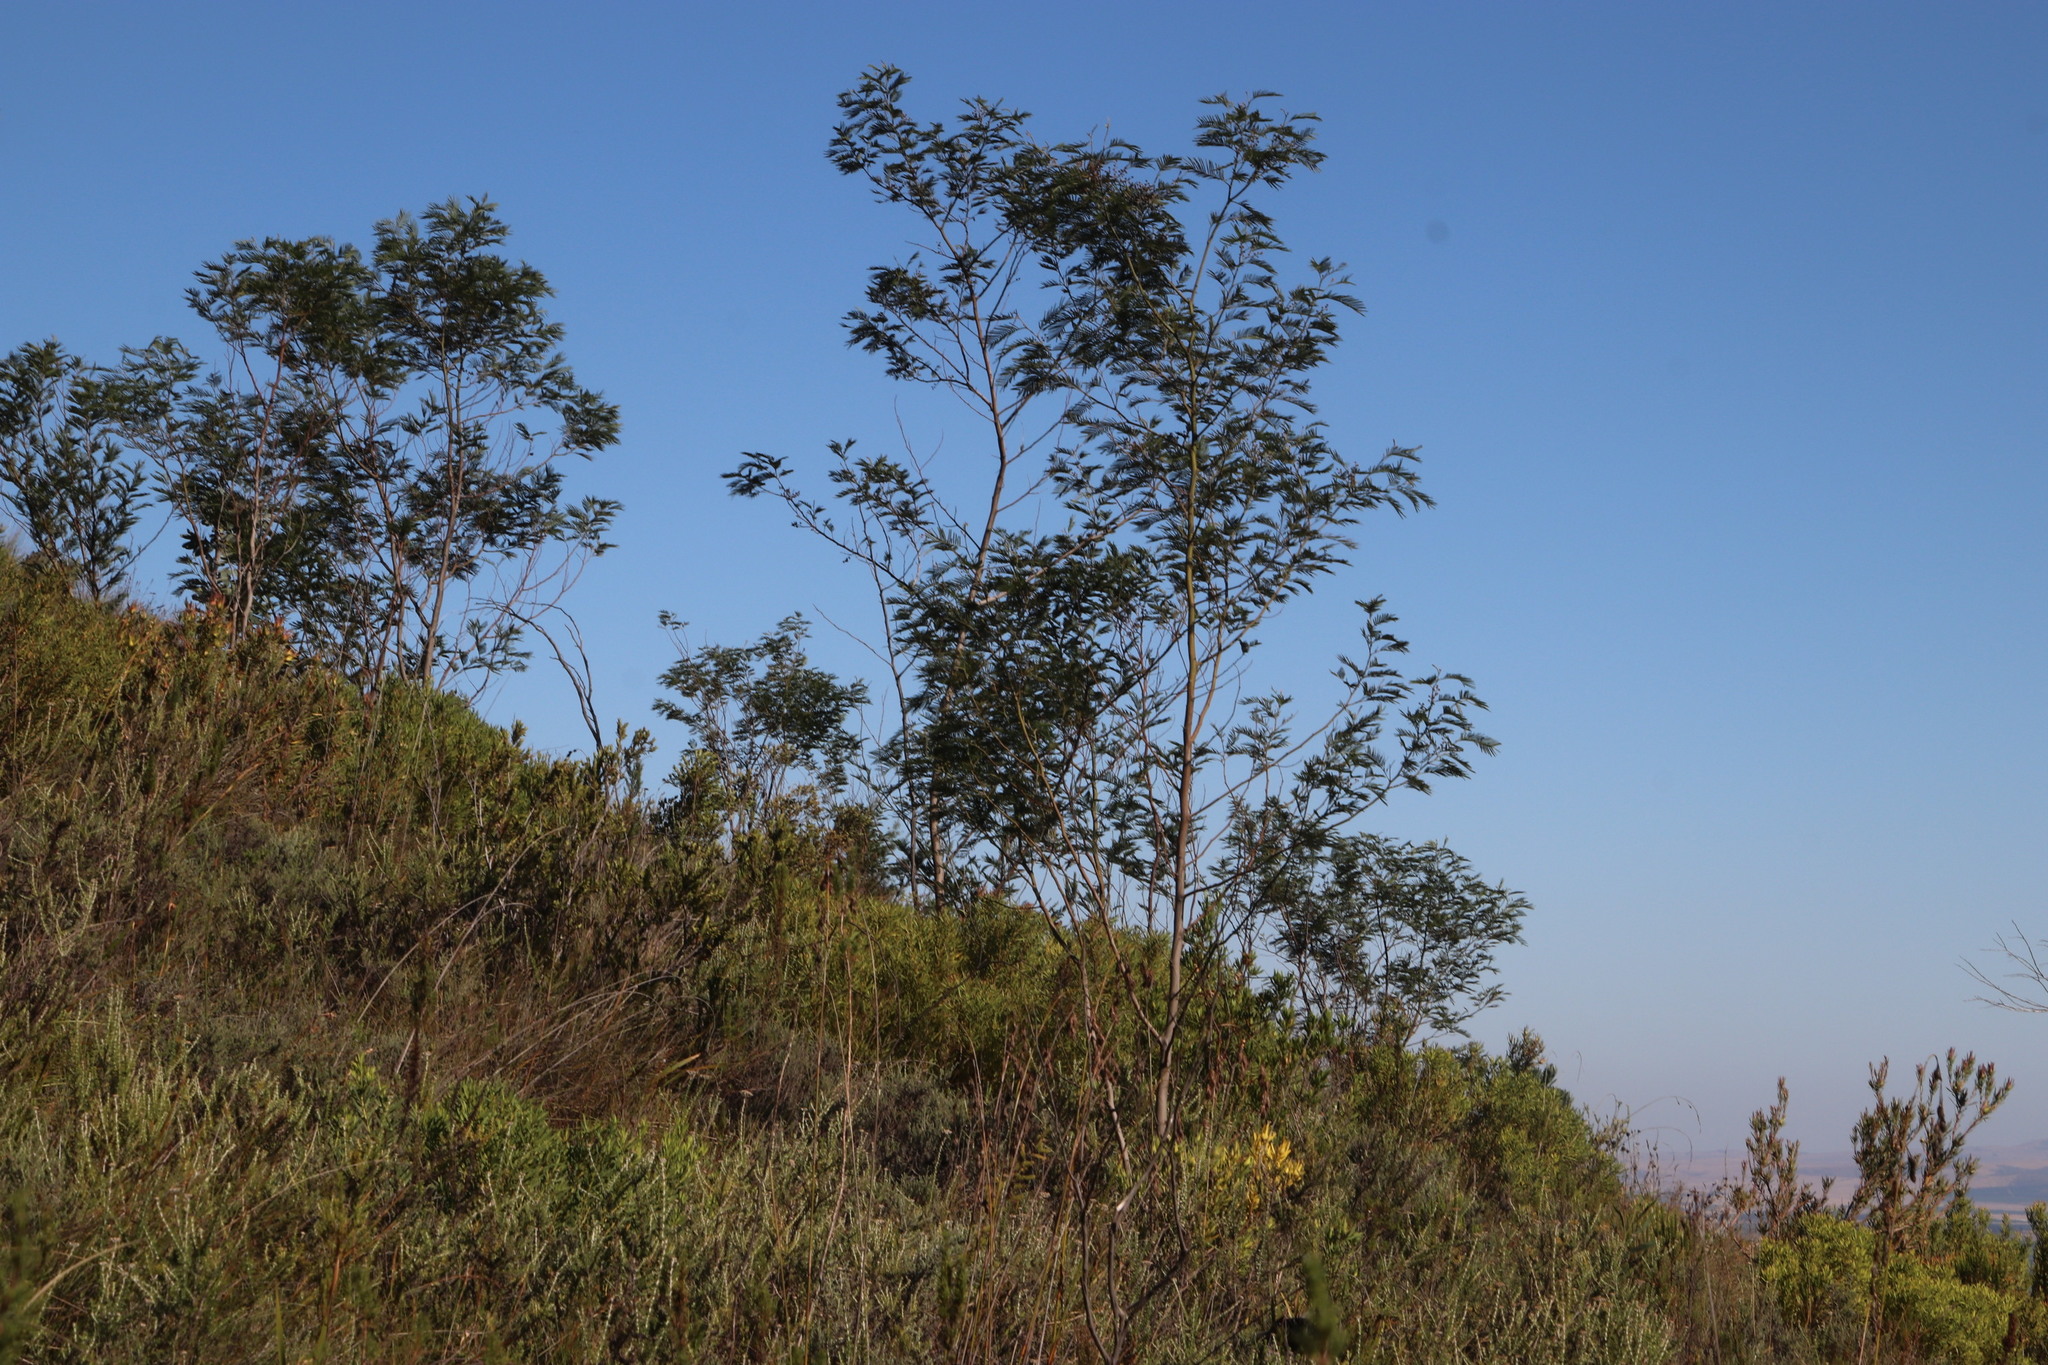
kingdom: Plantae
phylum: Tracheophyta
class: Magnoliopsida
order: Fabales
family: Fabaceae
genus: Acacia
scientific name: Acacia mearnsii
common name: Black wattle
